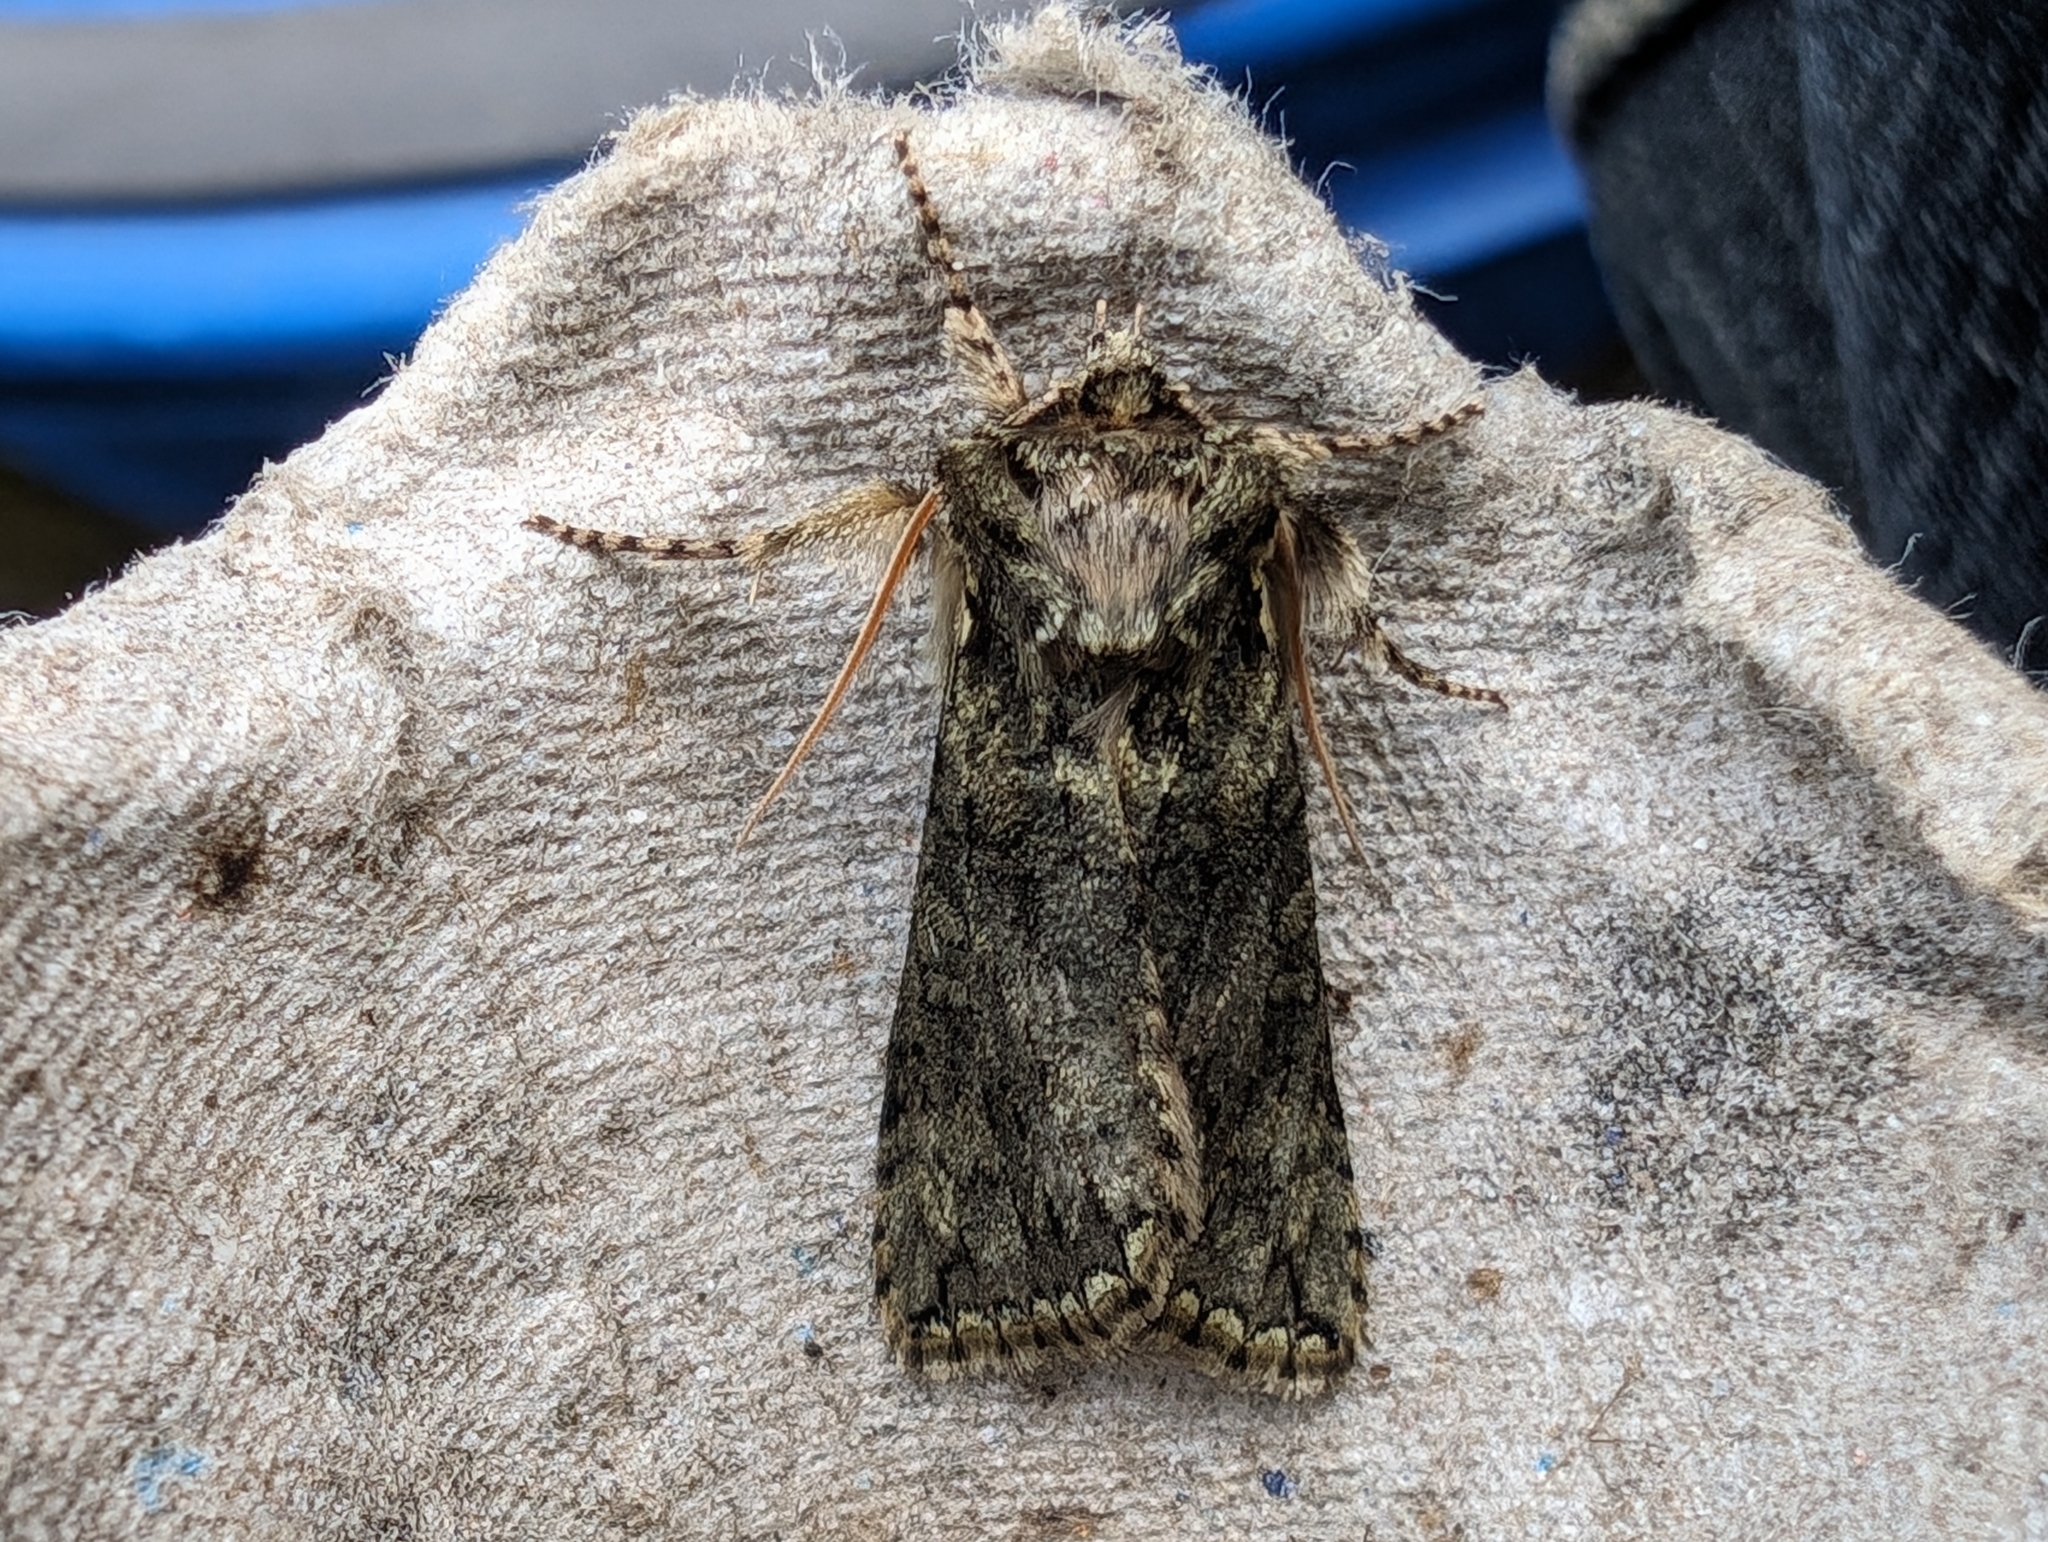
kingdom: Animalia
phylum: Arthropoda
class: Insecta
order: Lepidoptera
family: Drepanidae
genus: Polyploca
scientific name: Polyploca ridens
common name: Frosted green
